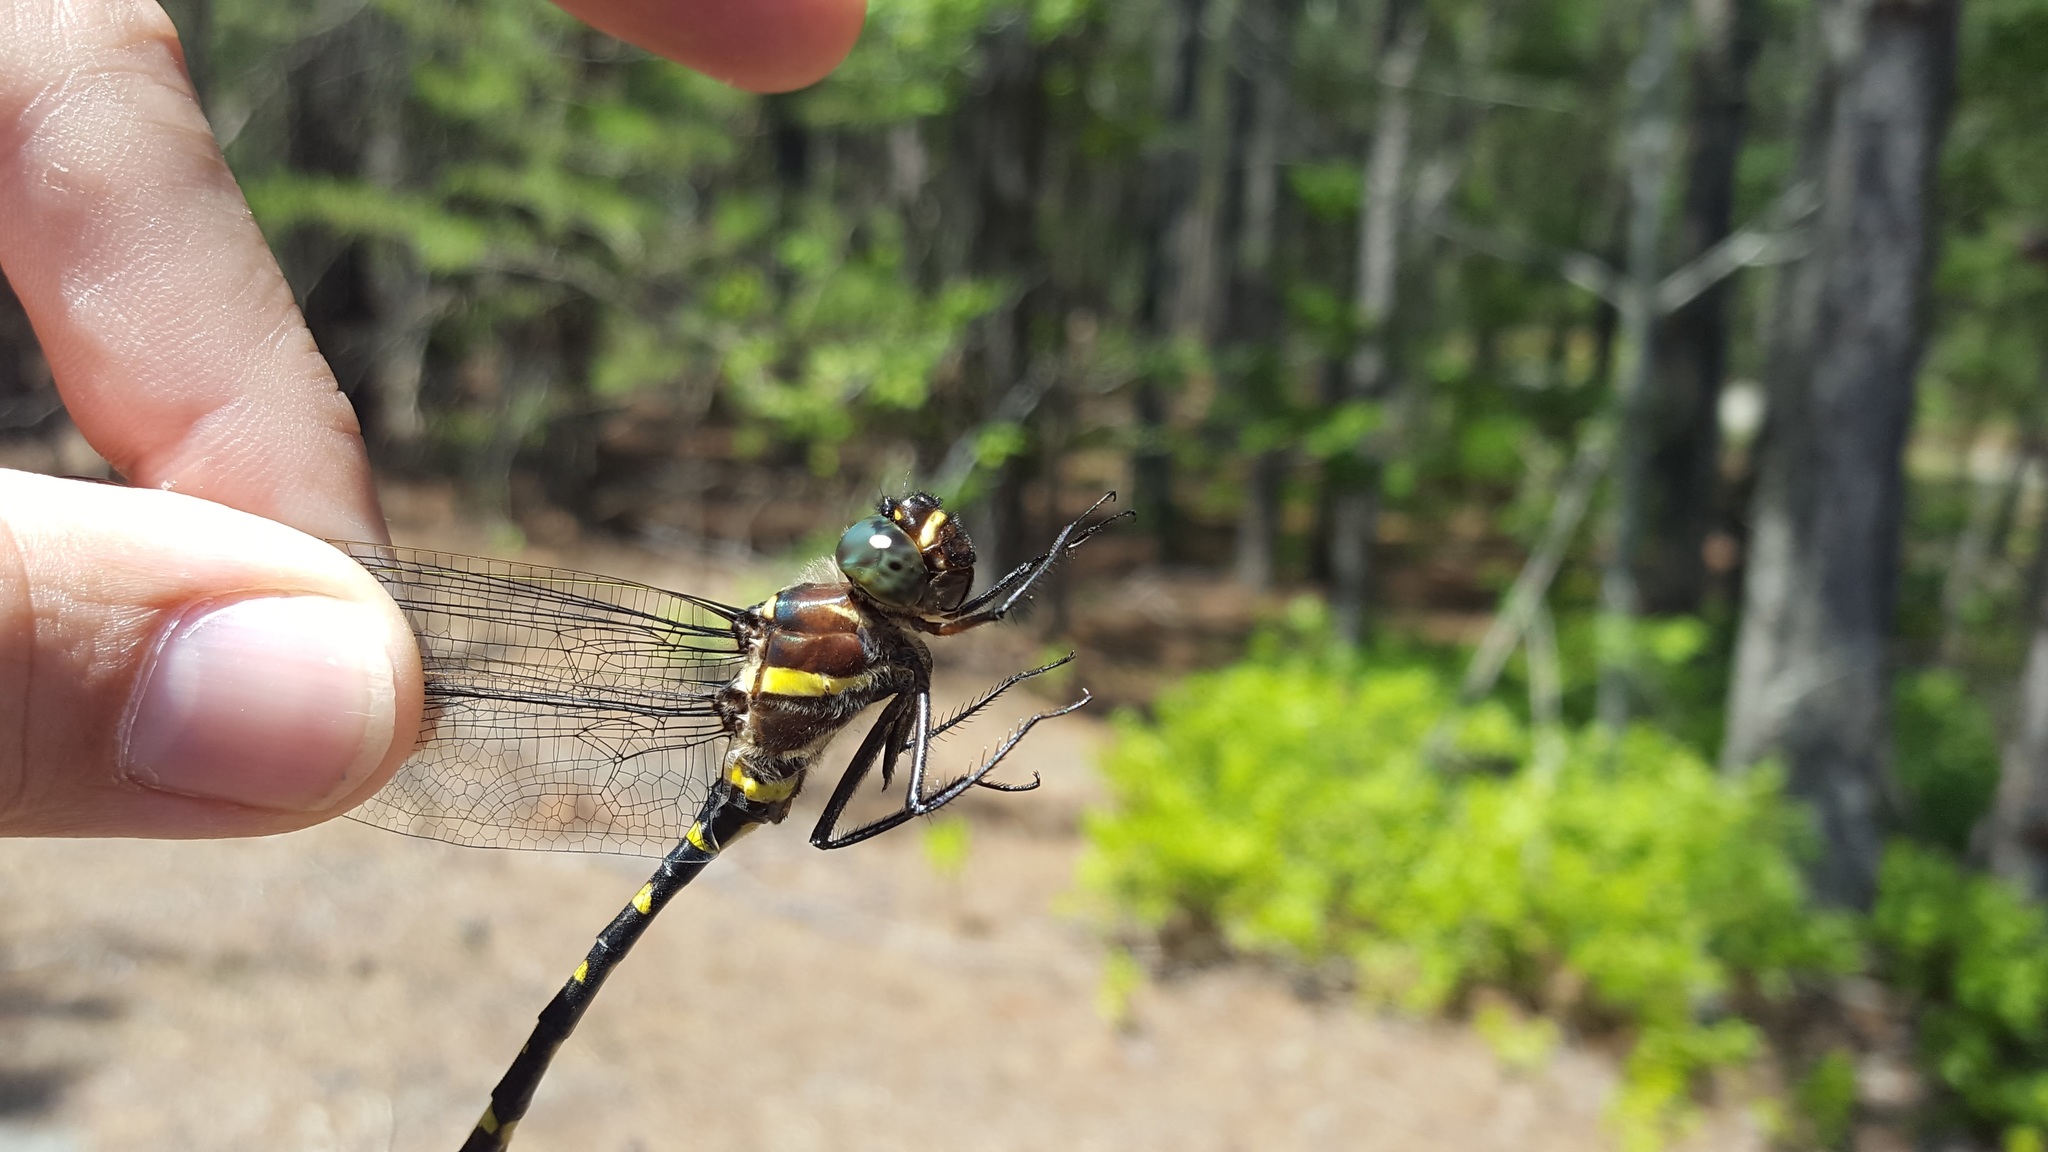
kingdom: Animalia
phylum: Arthropoda
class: Insecta
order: Odonata
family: Macromiidae
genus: Macromia
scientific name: Macromia illinoiensis
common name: Swift river cruiser
